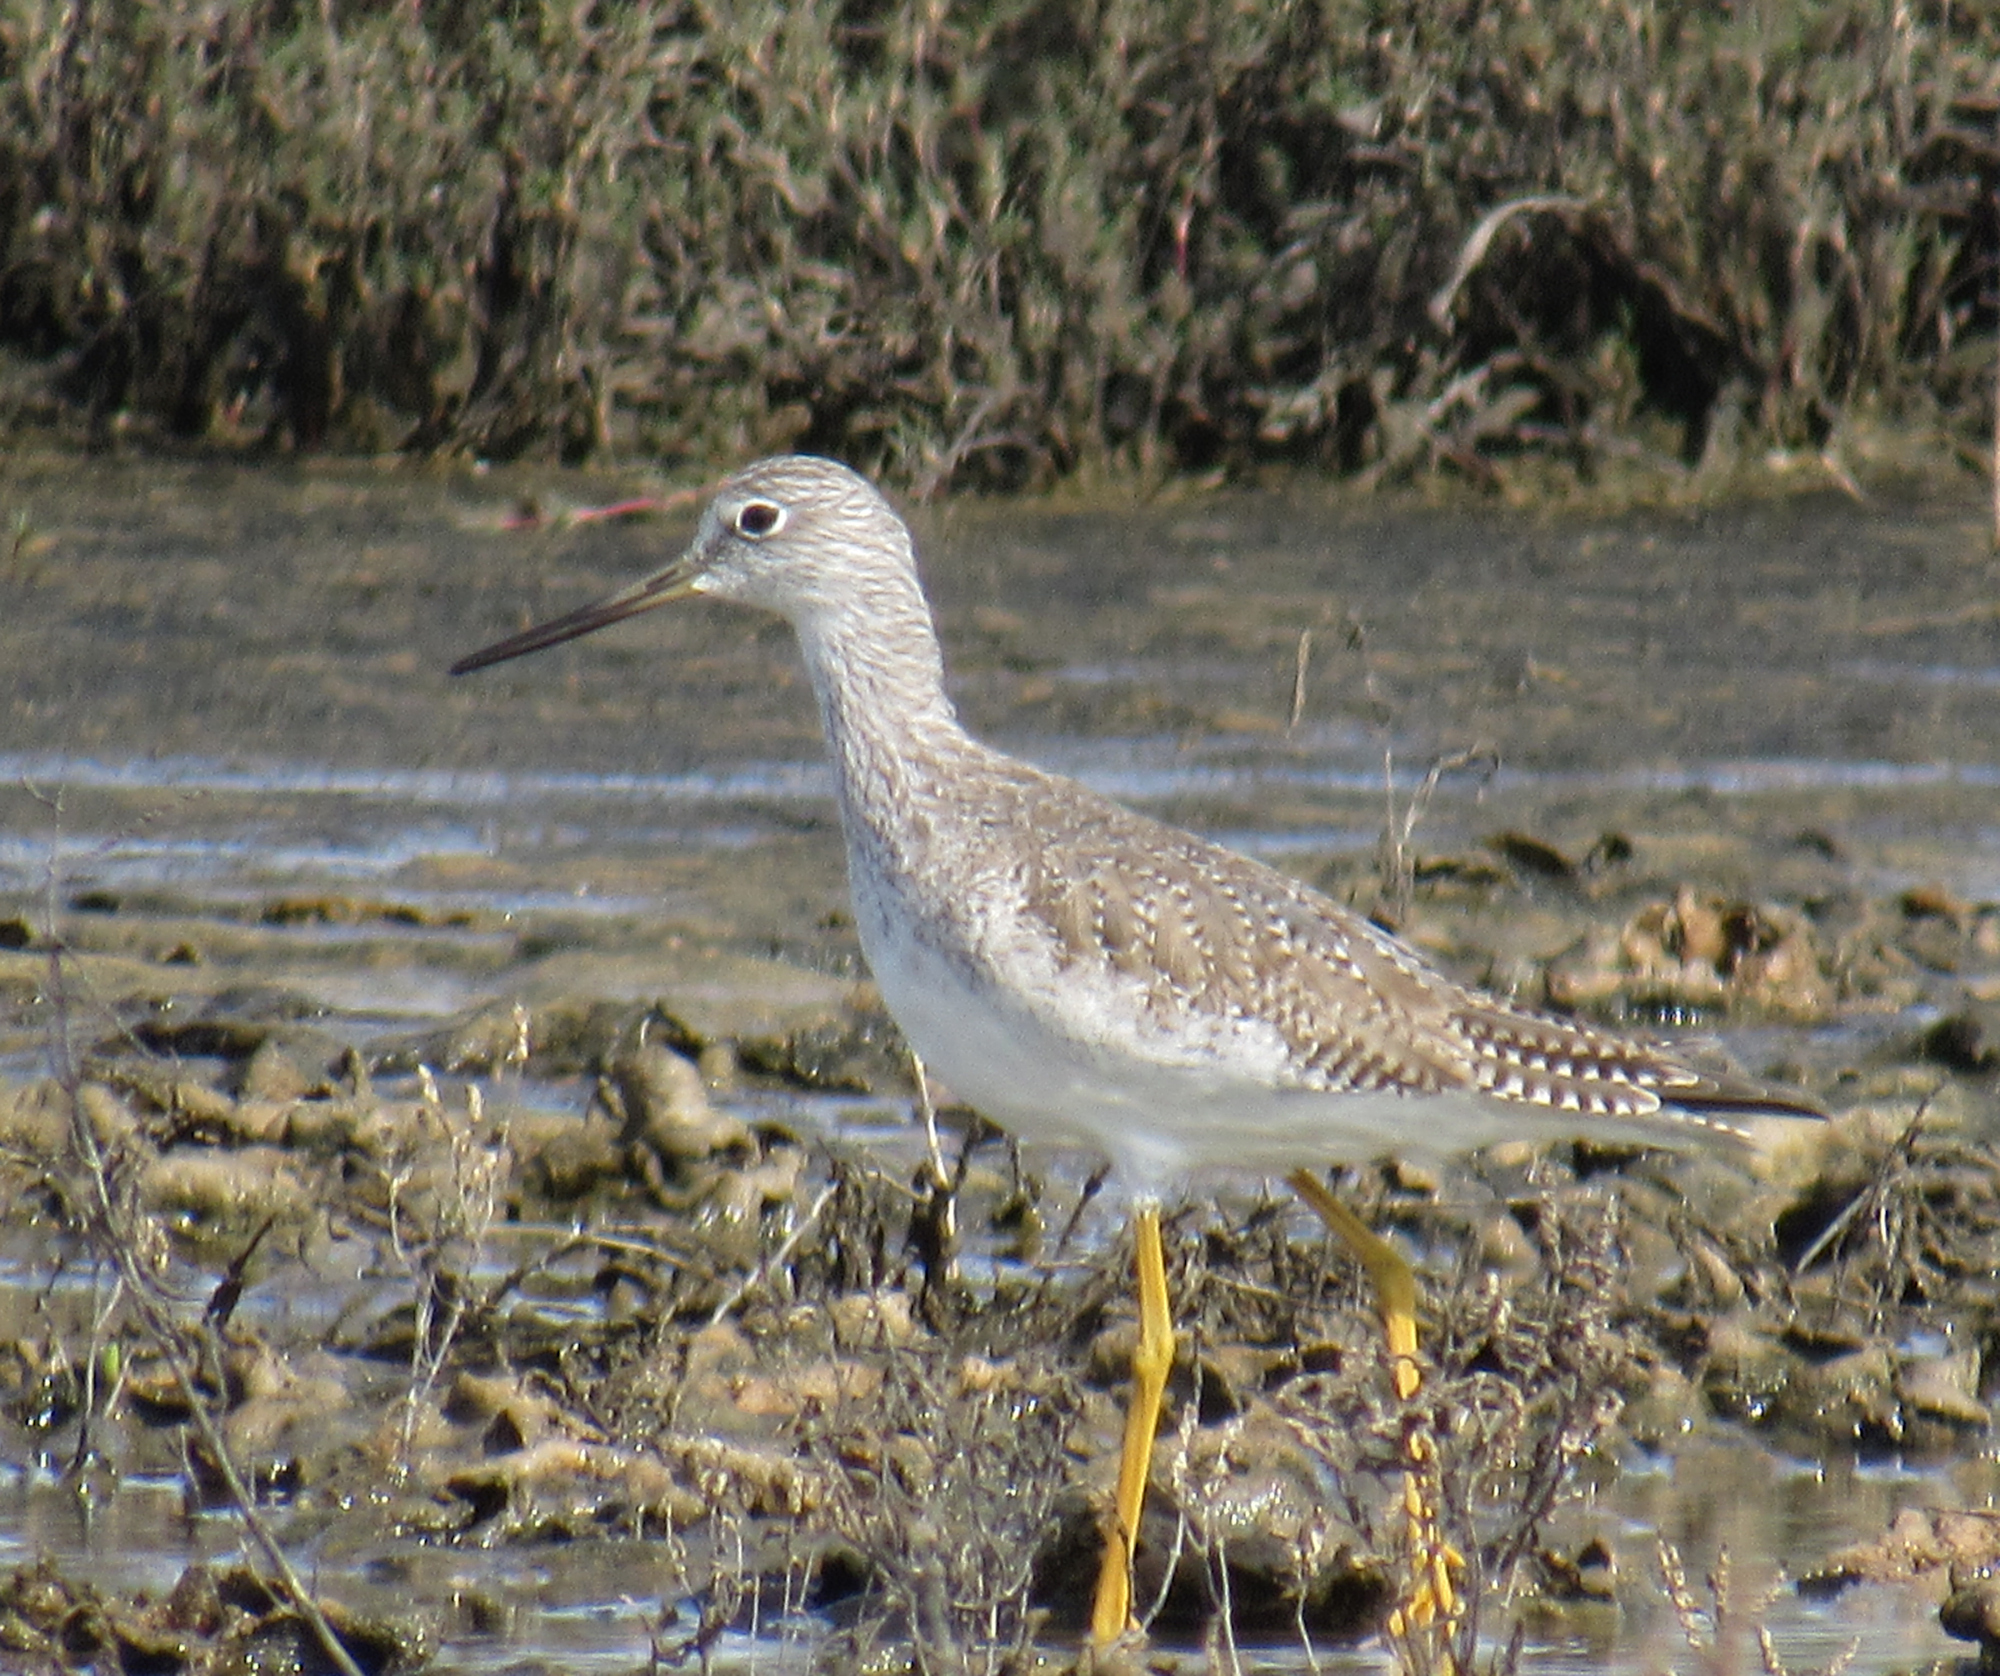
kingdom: Animalia
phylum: Chordata
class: Aves
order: Charadriiformes
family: Scolopacidae
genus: Tringa
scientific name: Tringa melanoleuca
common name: Greater yellowlegs
